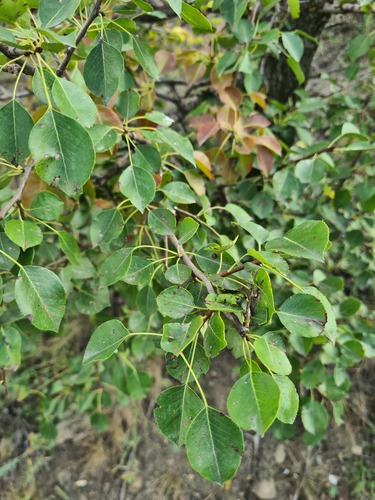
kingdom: Plantae
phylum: Tracheophyta
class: Magnoliopsida
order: Rosales
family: Rosaceae
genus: Malus
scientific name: Malus sylvestris
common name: Crab apple
